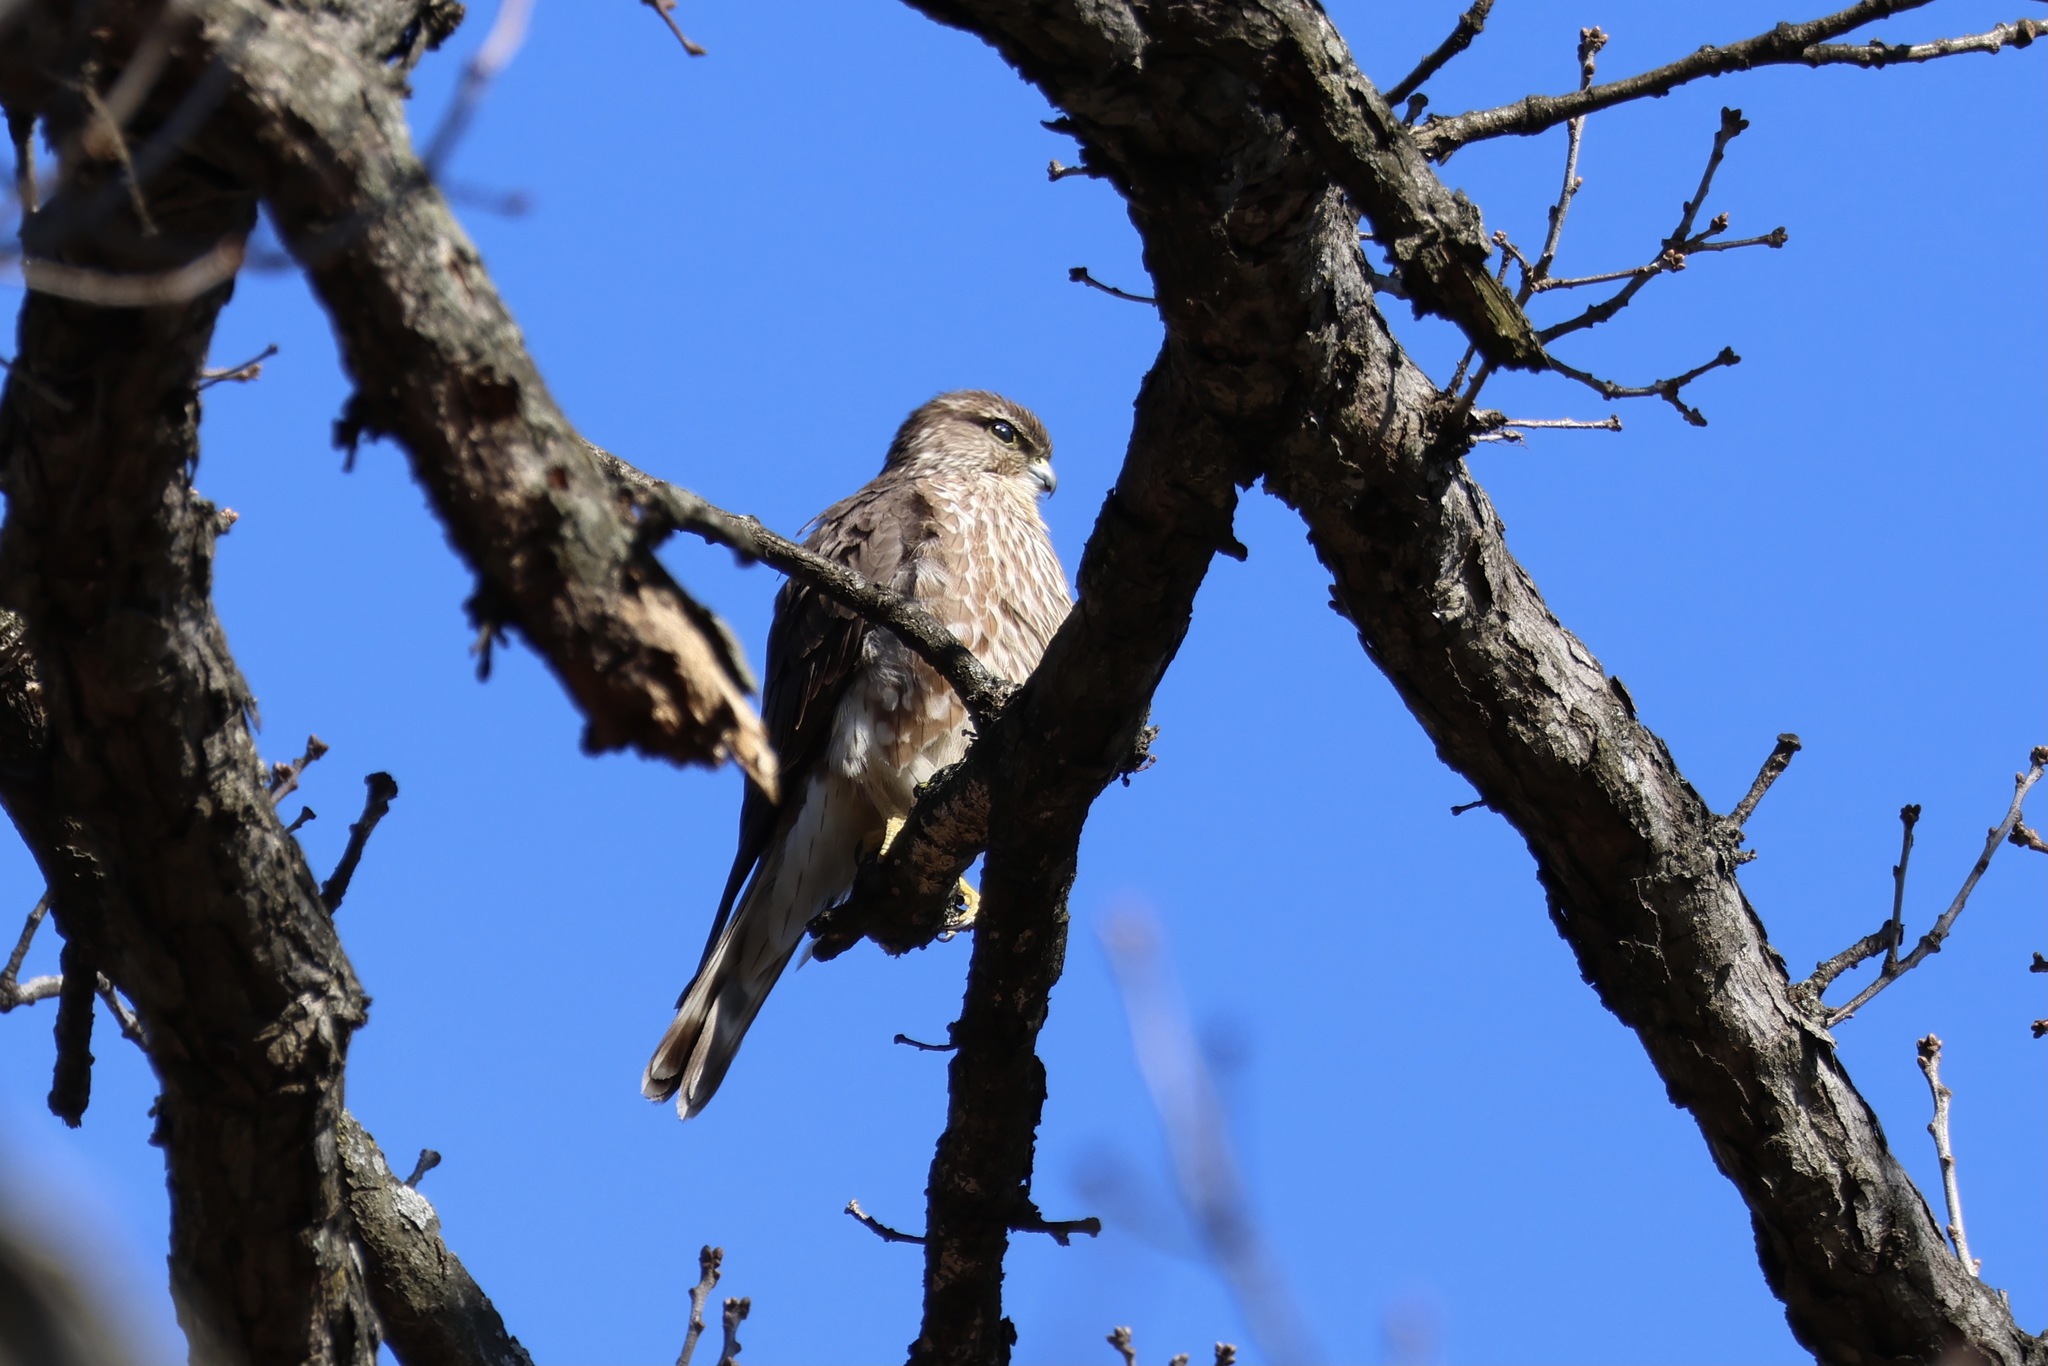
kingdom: Animalia
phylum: Chordata
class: Aves
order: Falconiformes
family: Falconidae
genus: Falco
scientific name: Falco columbarius
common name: Merlin
